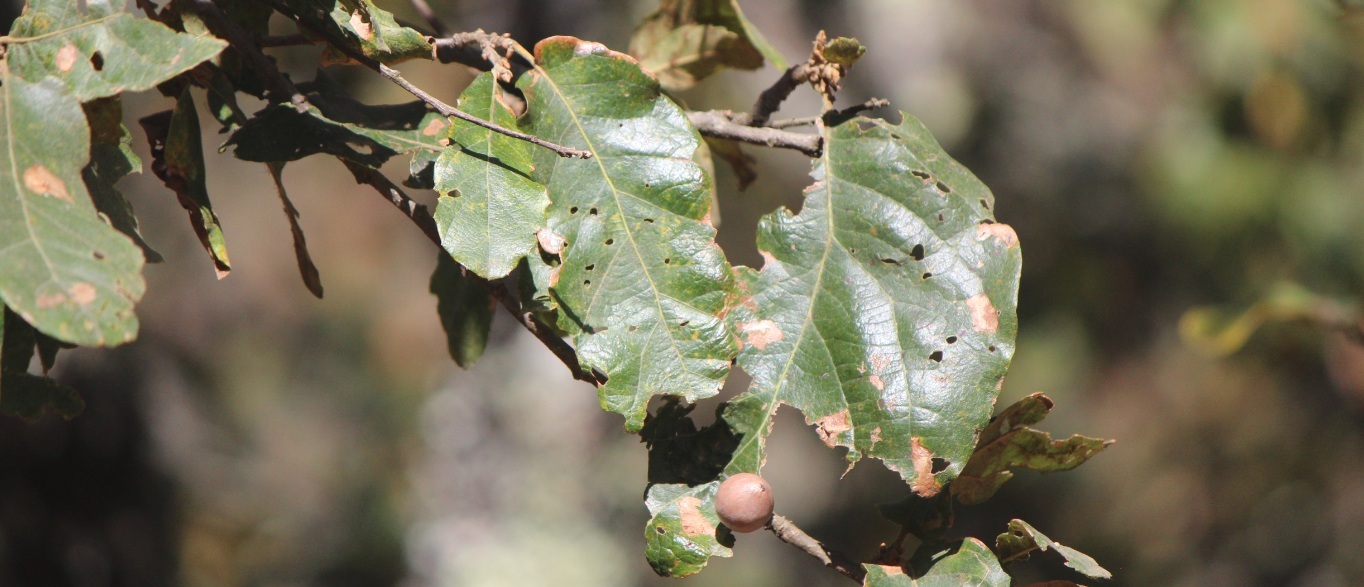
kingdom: Plantae
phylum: Tracheophyta
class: Magnoliopsida
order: Fagales
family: Fagaceae
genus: Quercus
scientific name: Quercus rugosa
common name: Netleaf oak
